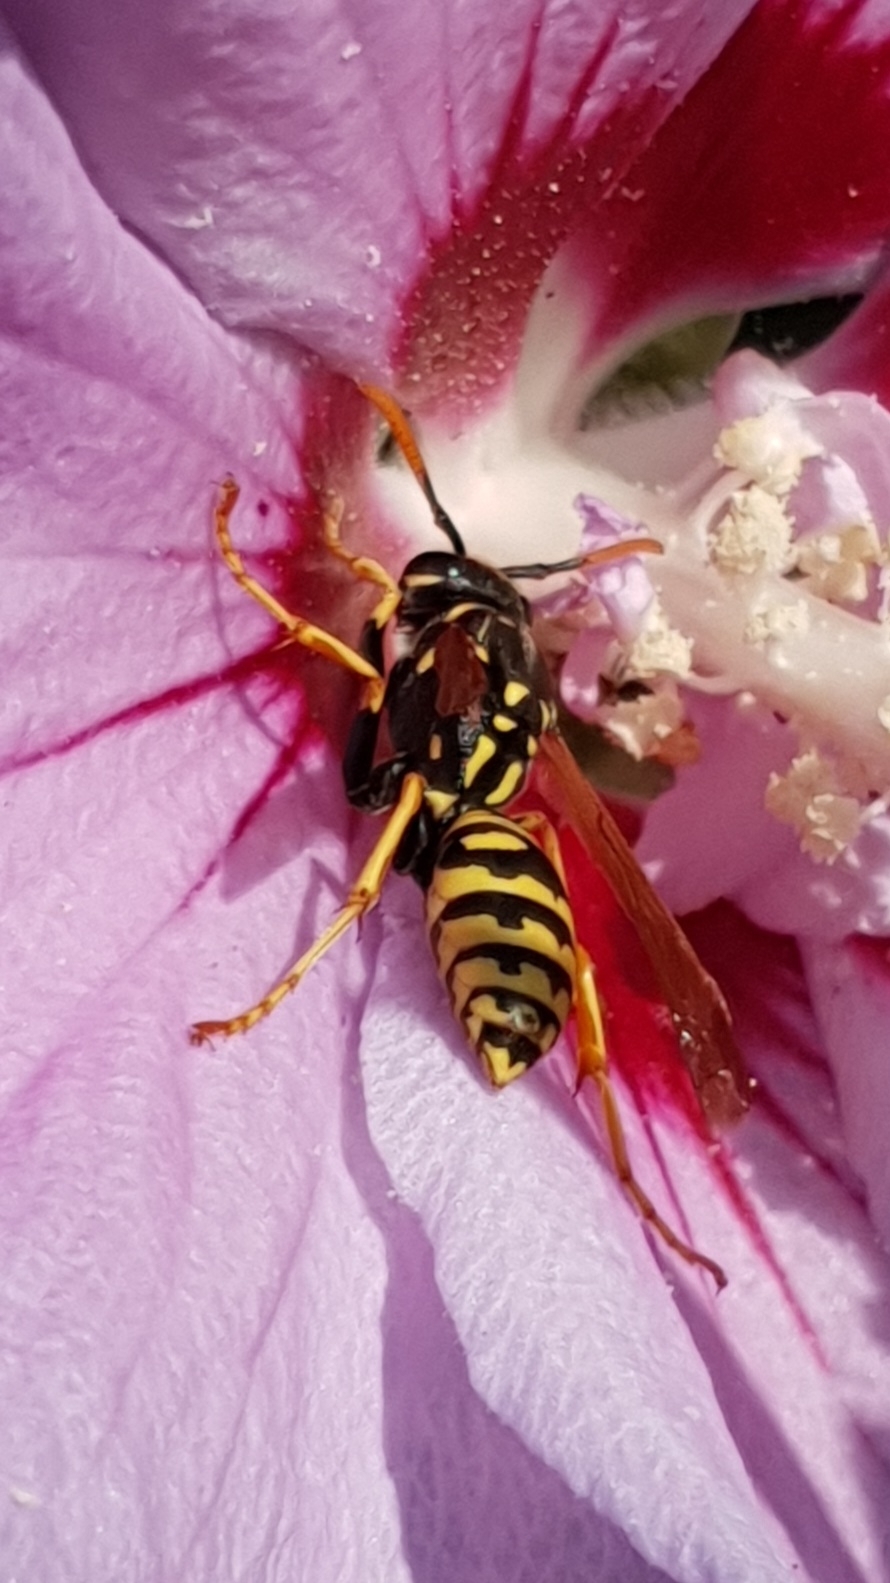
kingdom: Animalia
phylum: Arthropoda
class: Insecta
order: Hymenoptera
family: Eumenidae
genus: Polistes
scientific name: Polistes dominula
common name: Paper wasp
